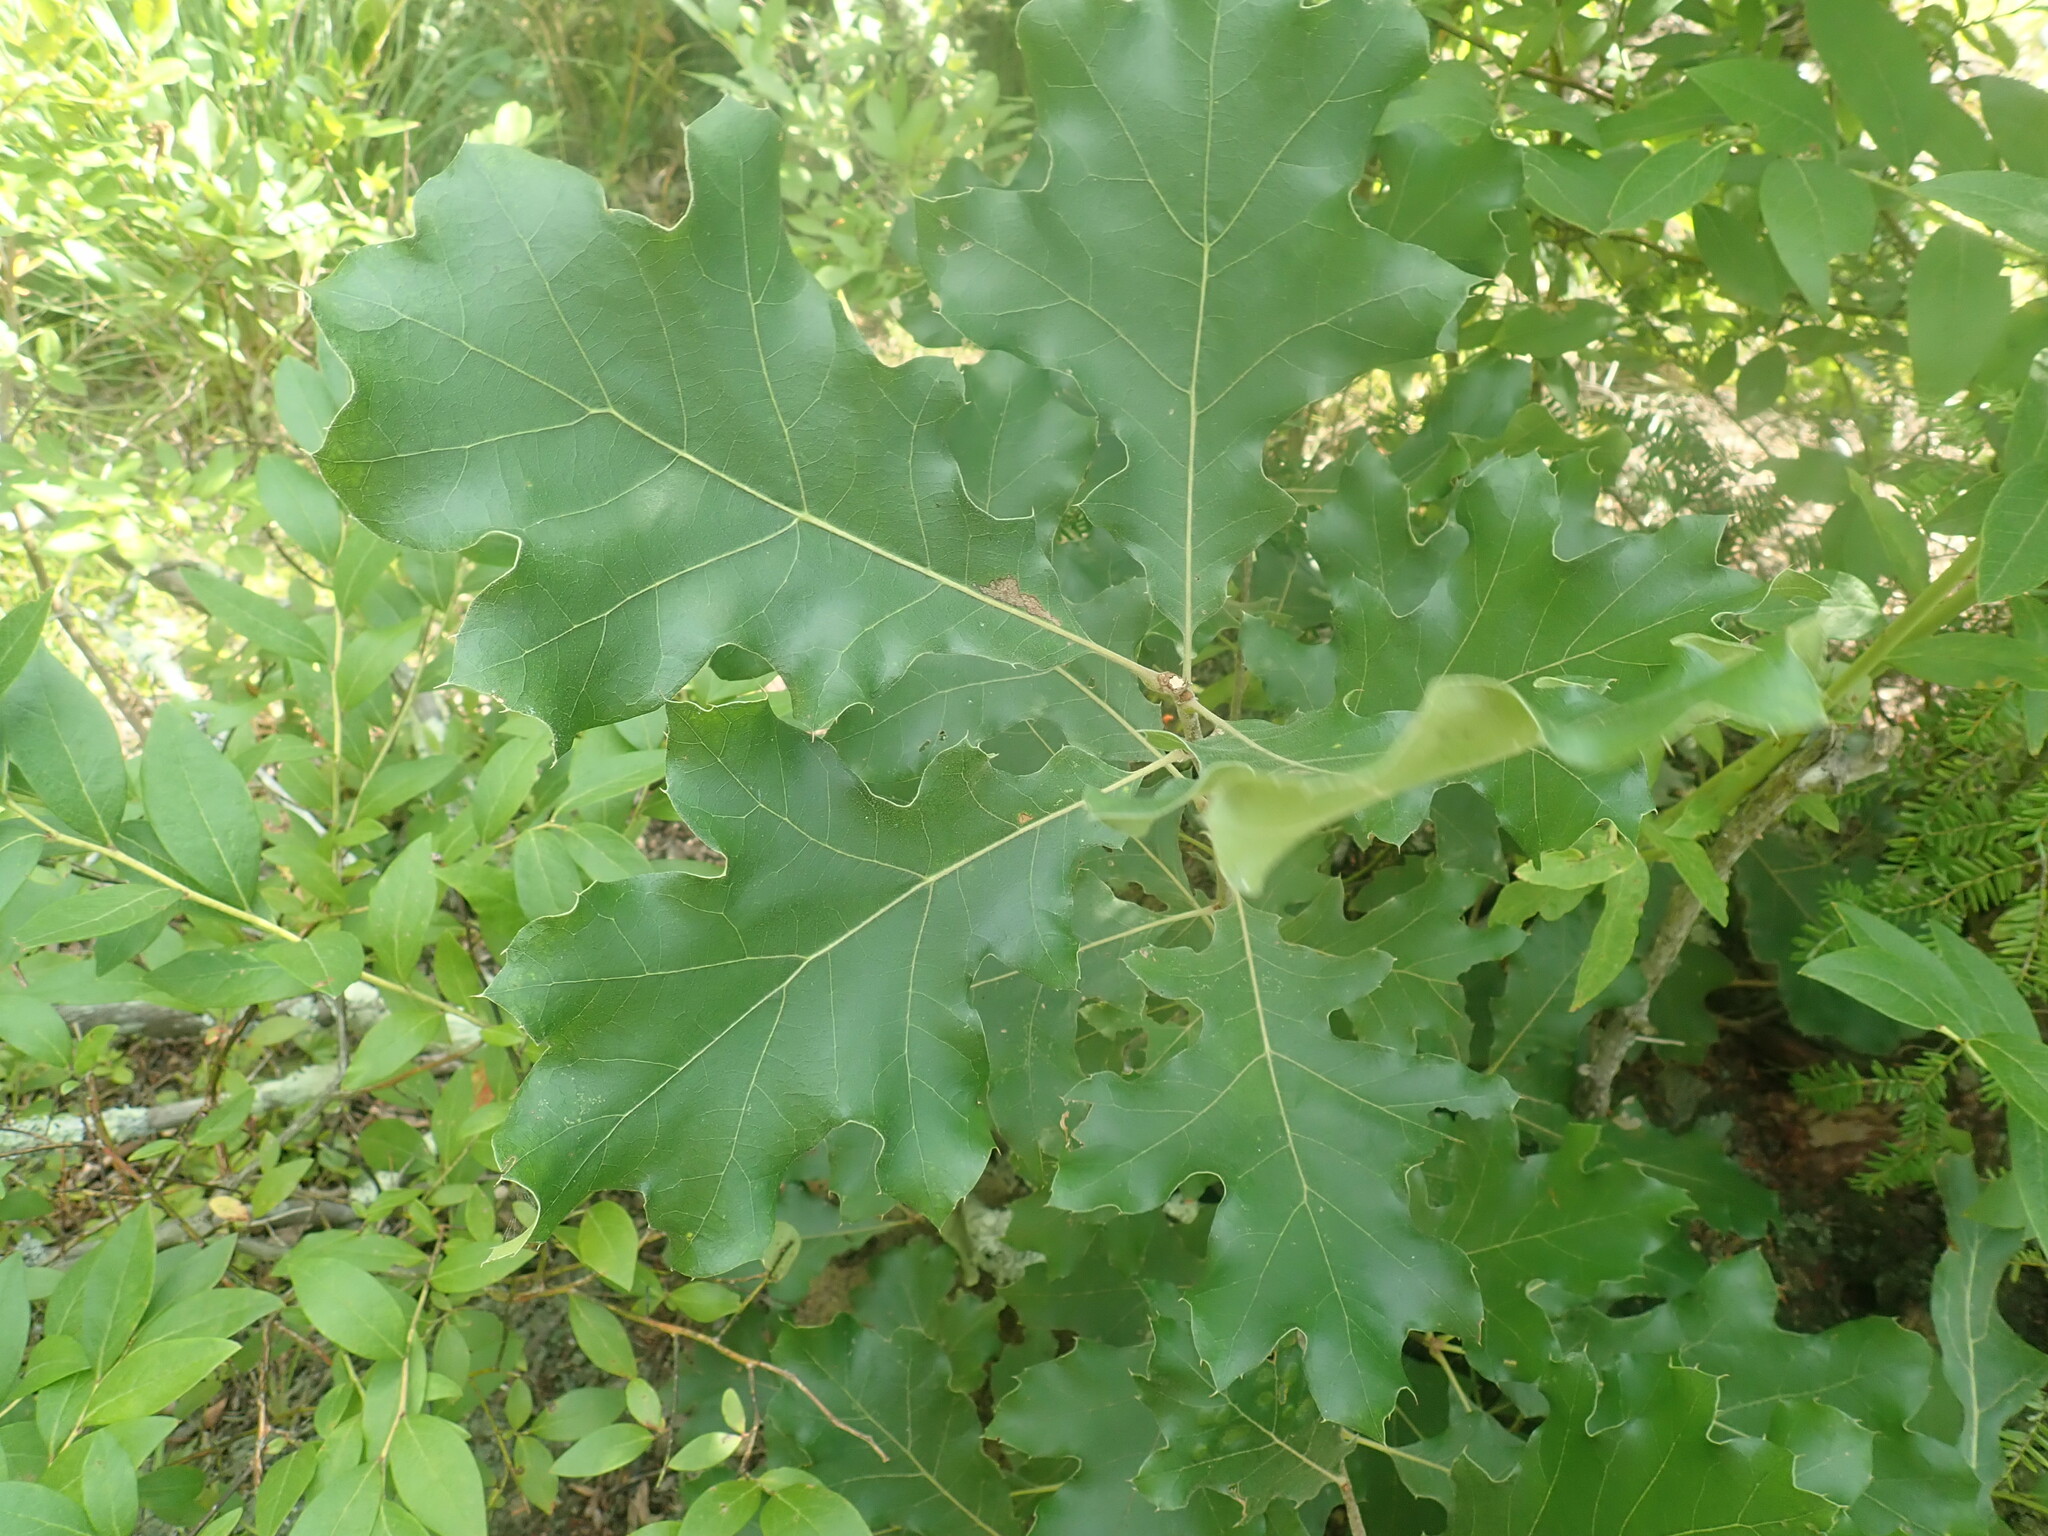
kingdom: Plantae
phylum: Tracheophyta
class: Magnoliopsida
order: Fagales
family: Fagaceae
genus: Quercus
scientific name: Quercus velutina
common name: Black oak
